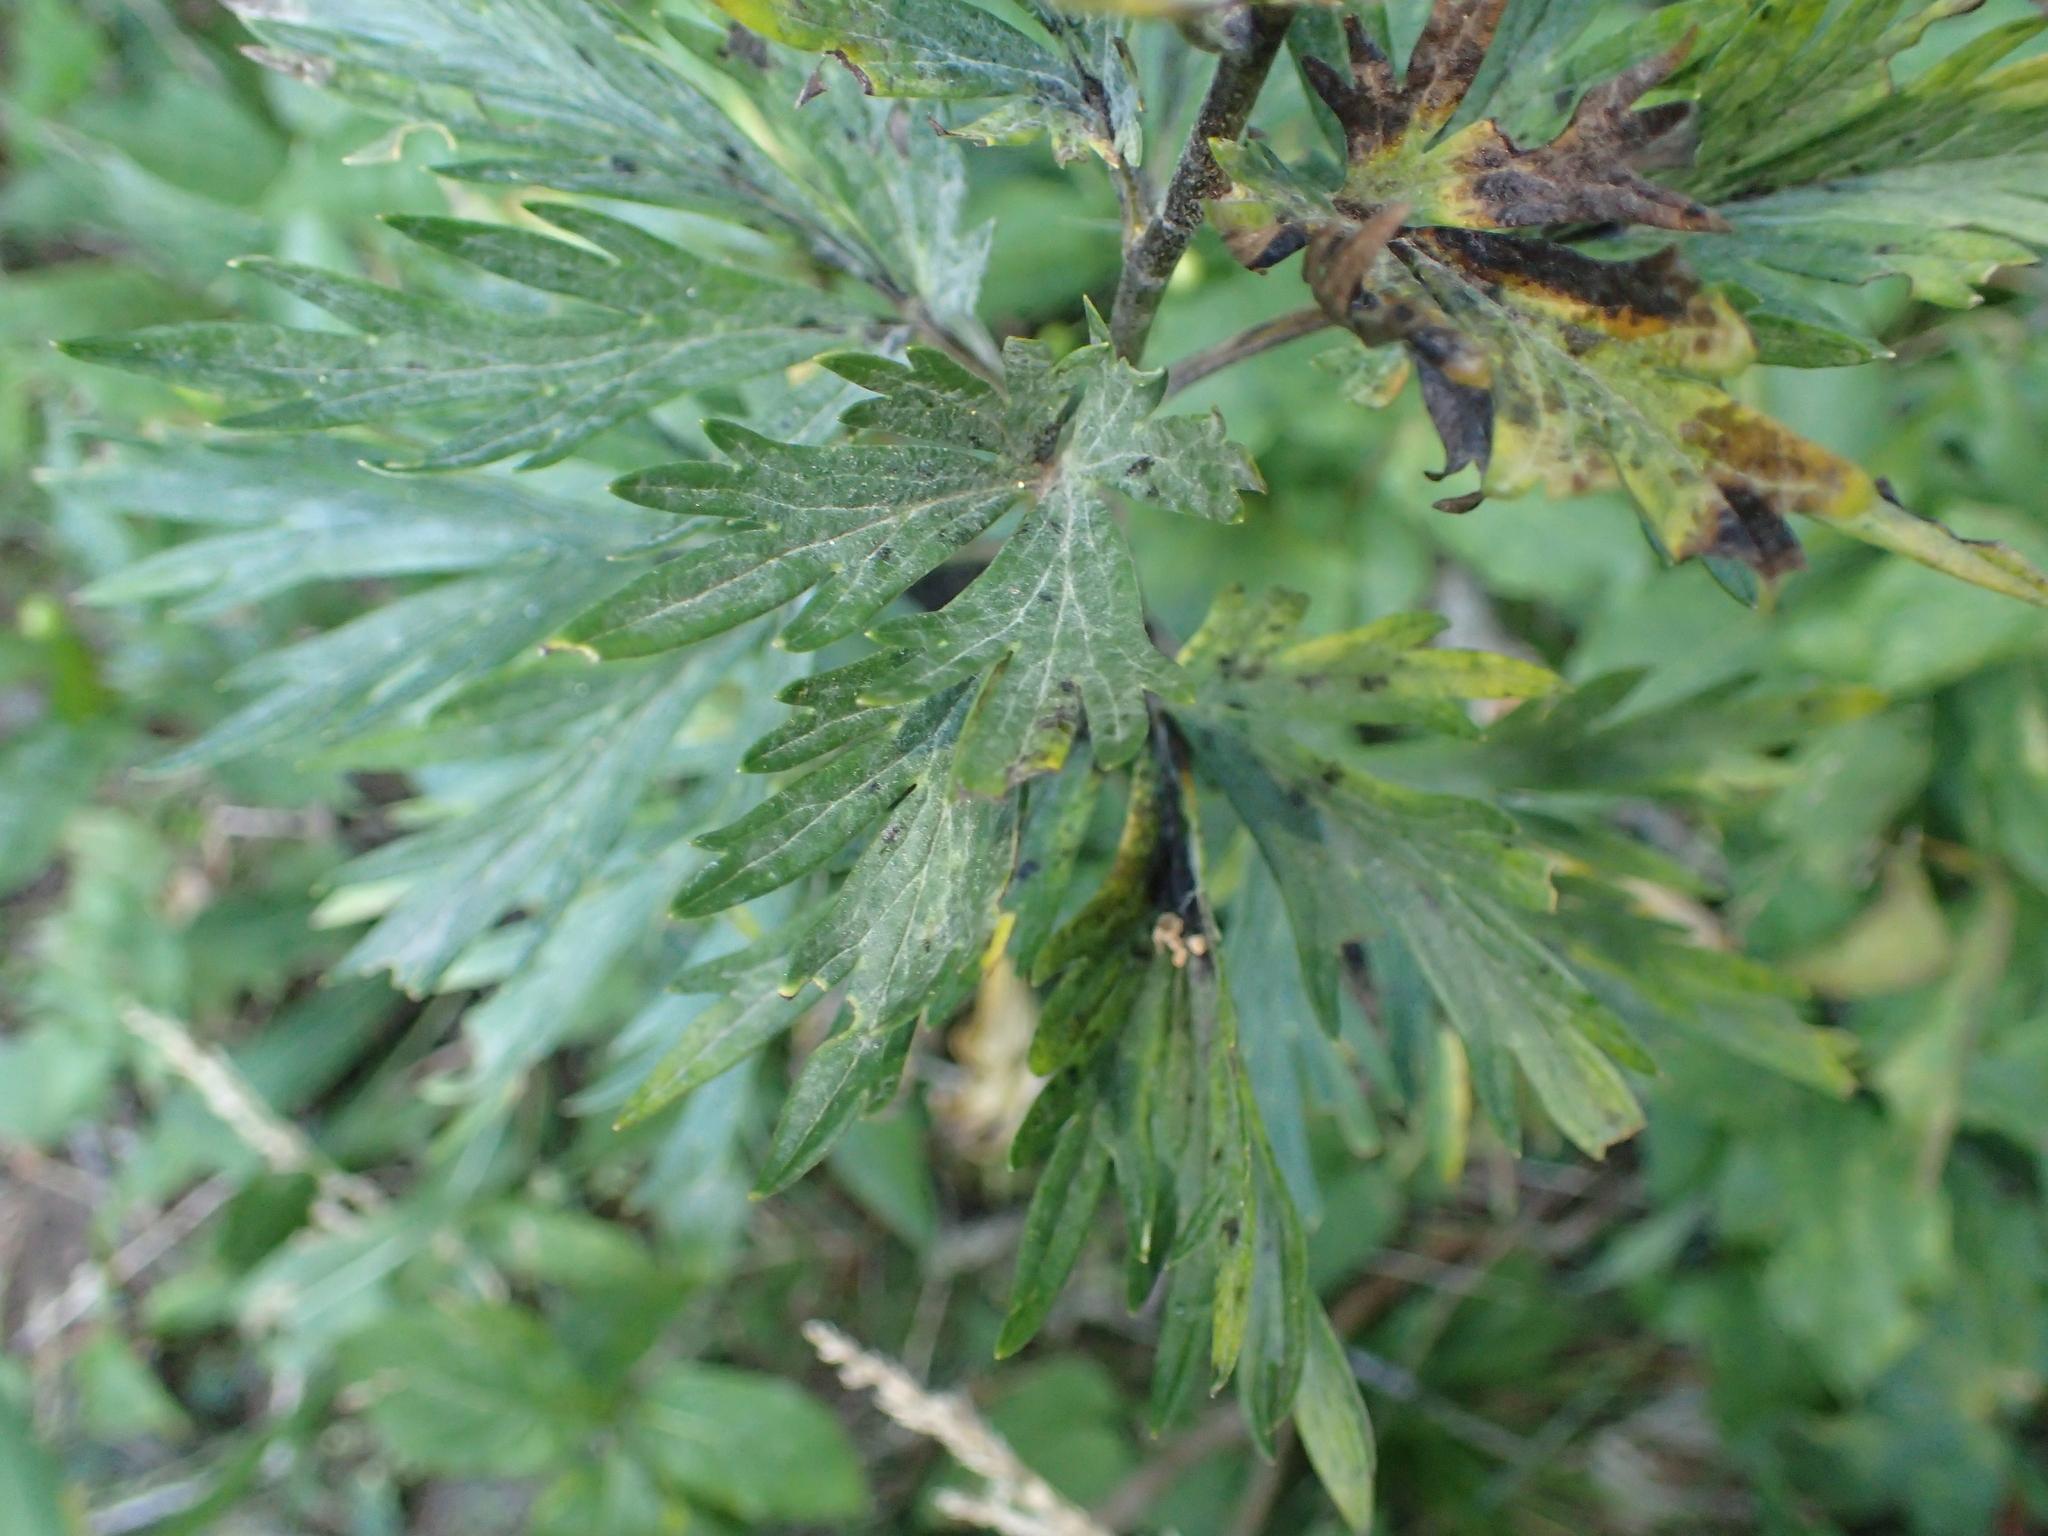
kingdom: Plantae
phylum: Tracheophyta
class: Magnoliopsida
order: Ranunculales
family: Ranunculaceae
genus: Aconitum
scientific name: Aconitum napellus
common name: Garden monkshood
